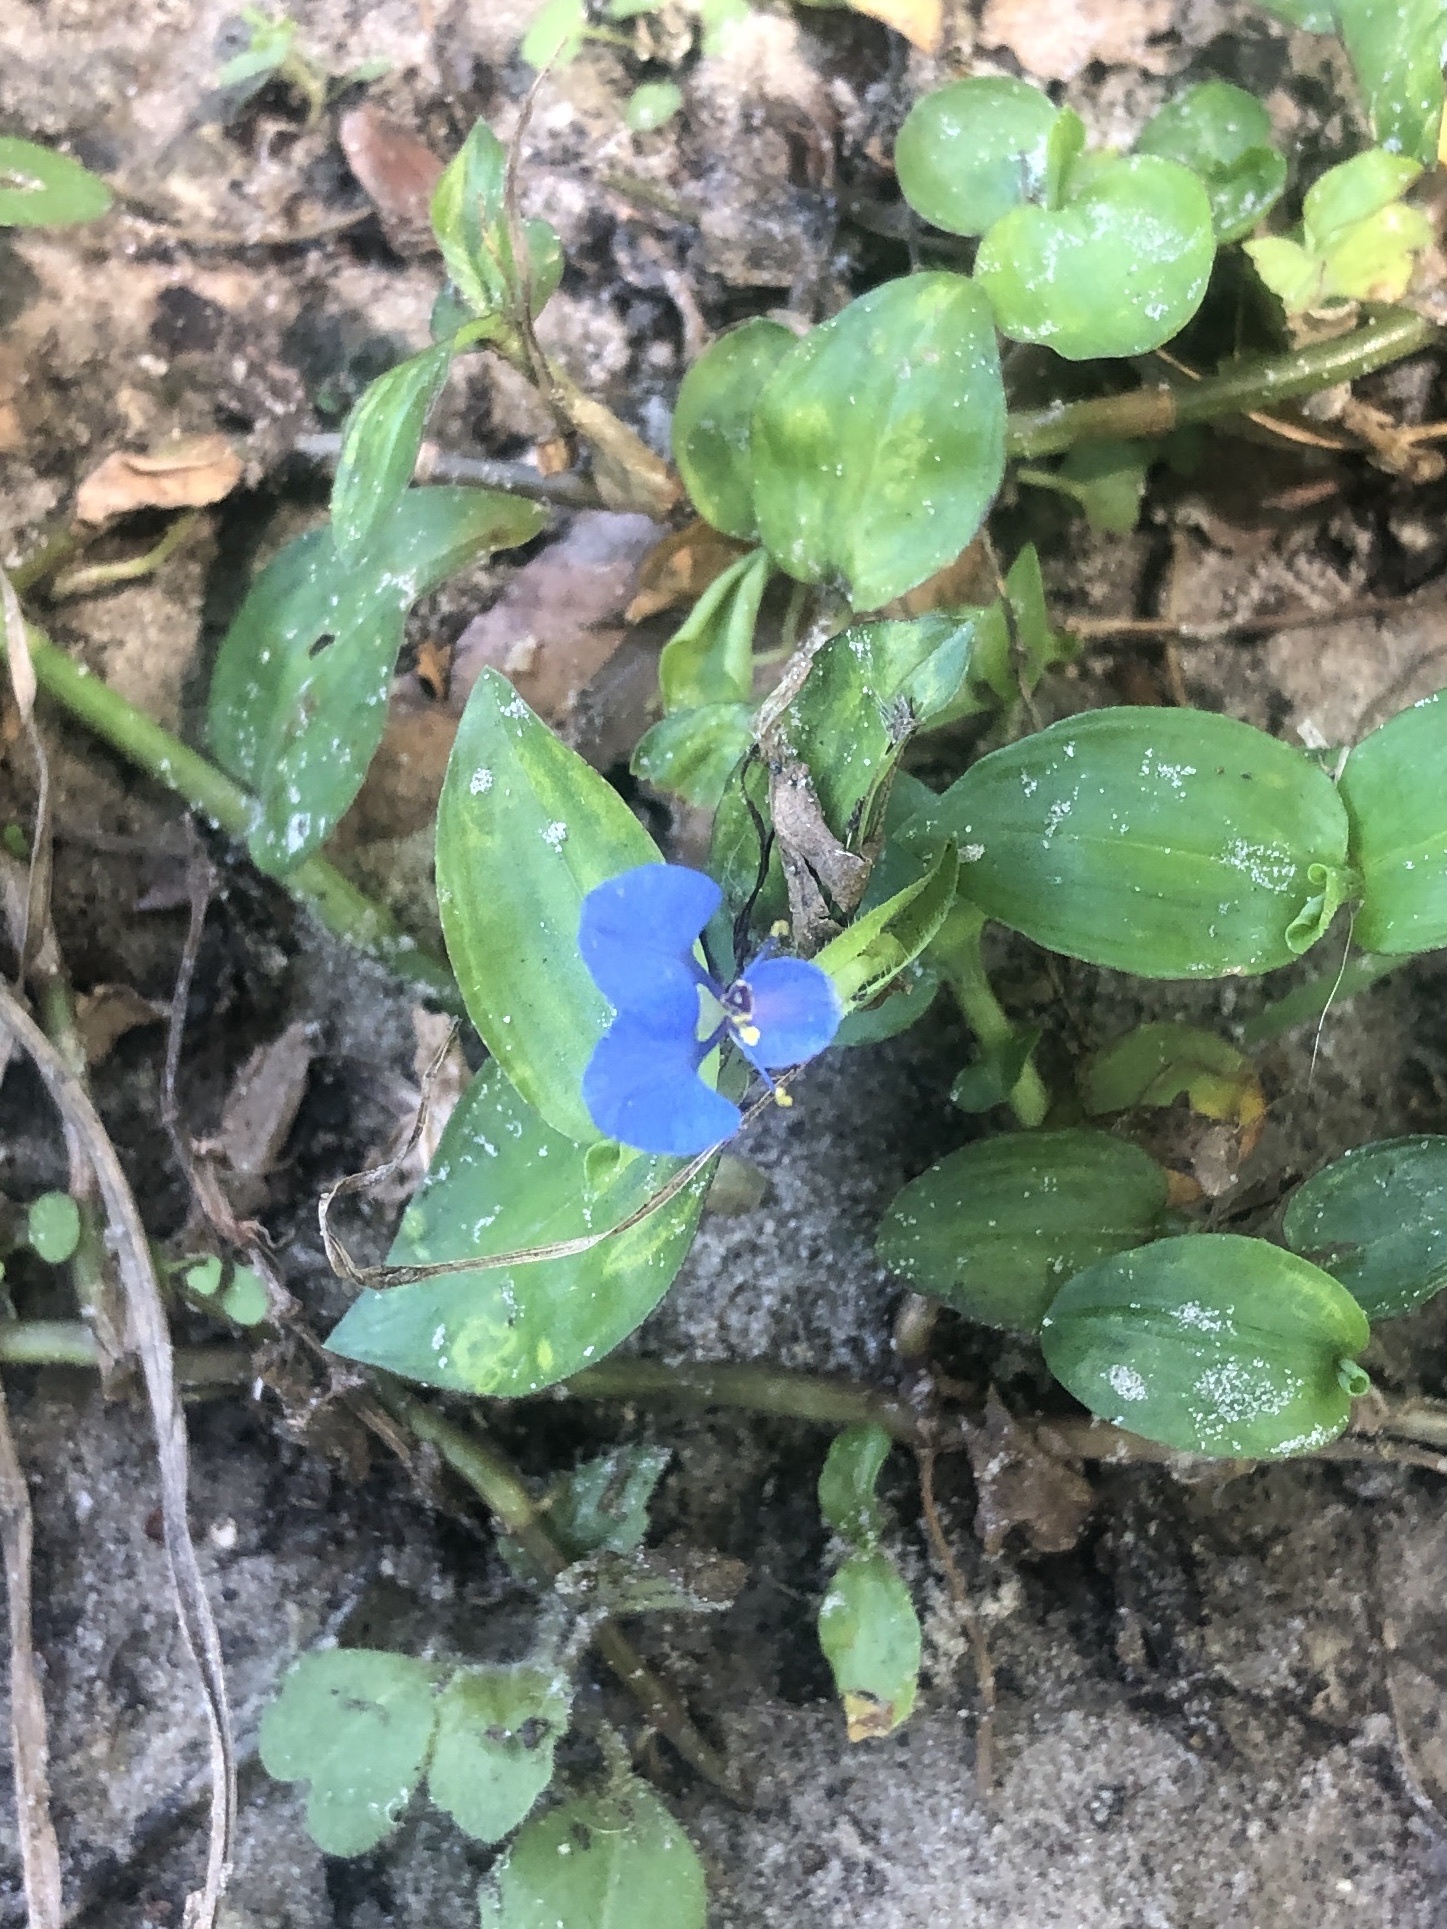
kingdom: Plantae
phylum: Tracheophyta
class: Liliopsida
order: Commelinales
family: Commelinaceae
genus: Commelina
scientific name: Commelina diffusa
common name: Climbing dayflower
